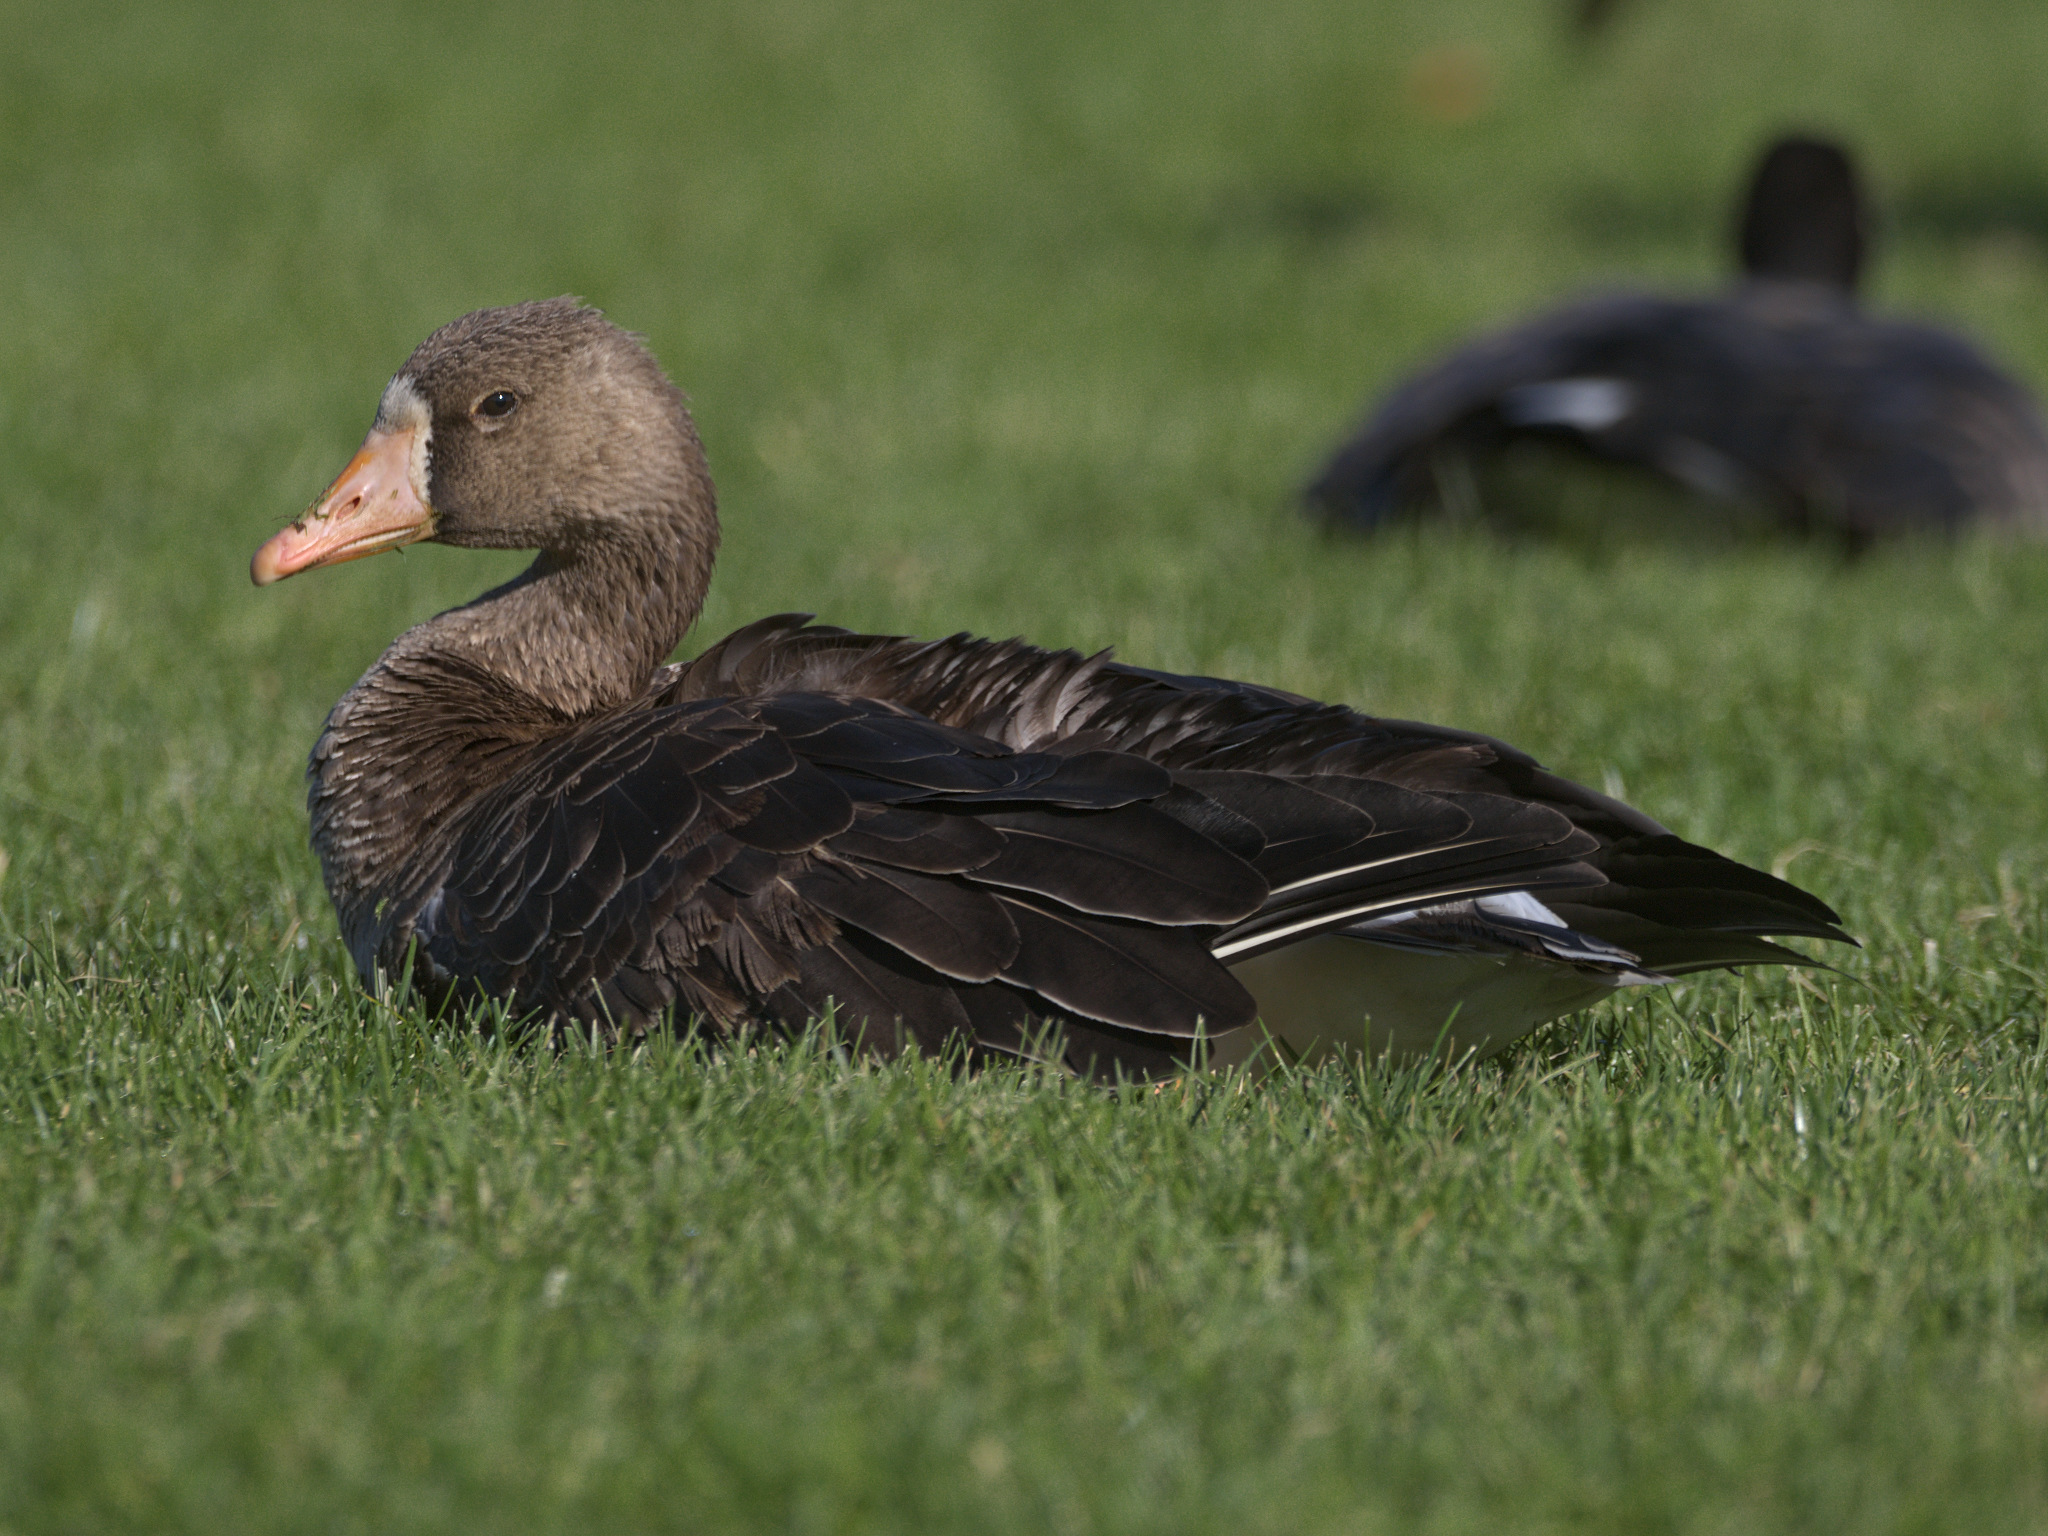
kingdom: Animalia
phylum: Chordata
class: Aves
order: Anseriformes
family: Anatidae
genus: Anser
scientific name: Anser albifrons
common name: Greater white-fronted goose
